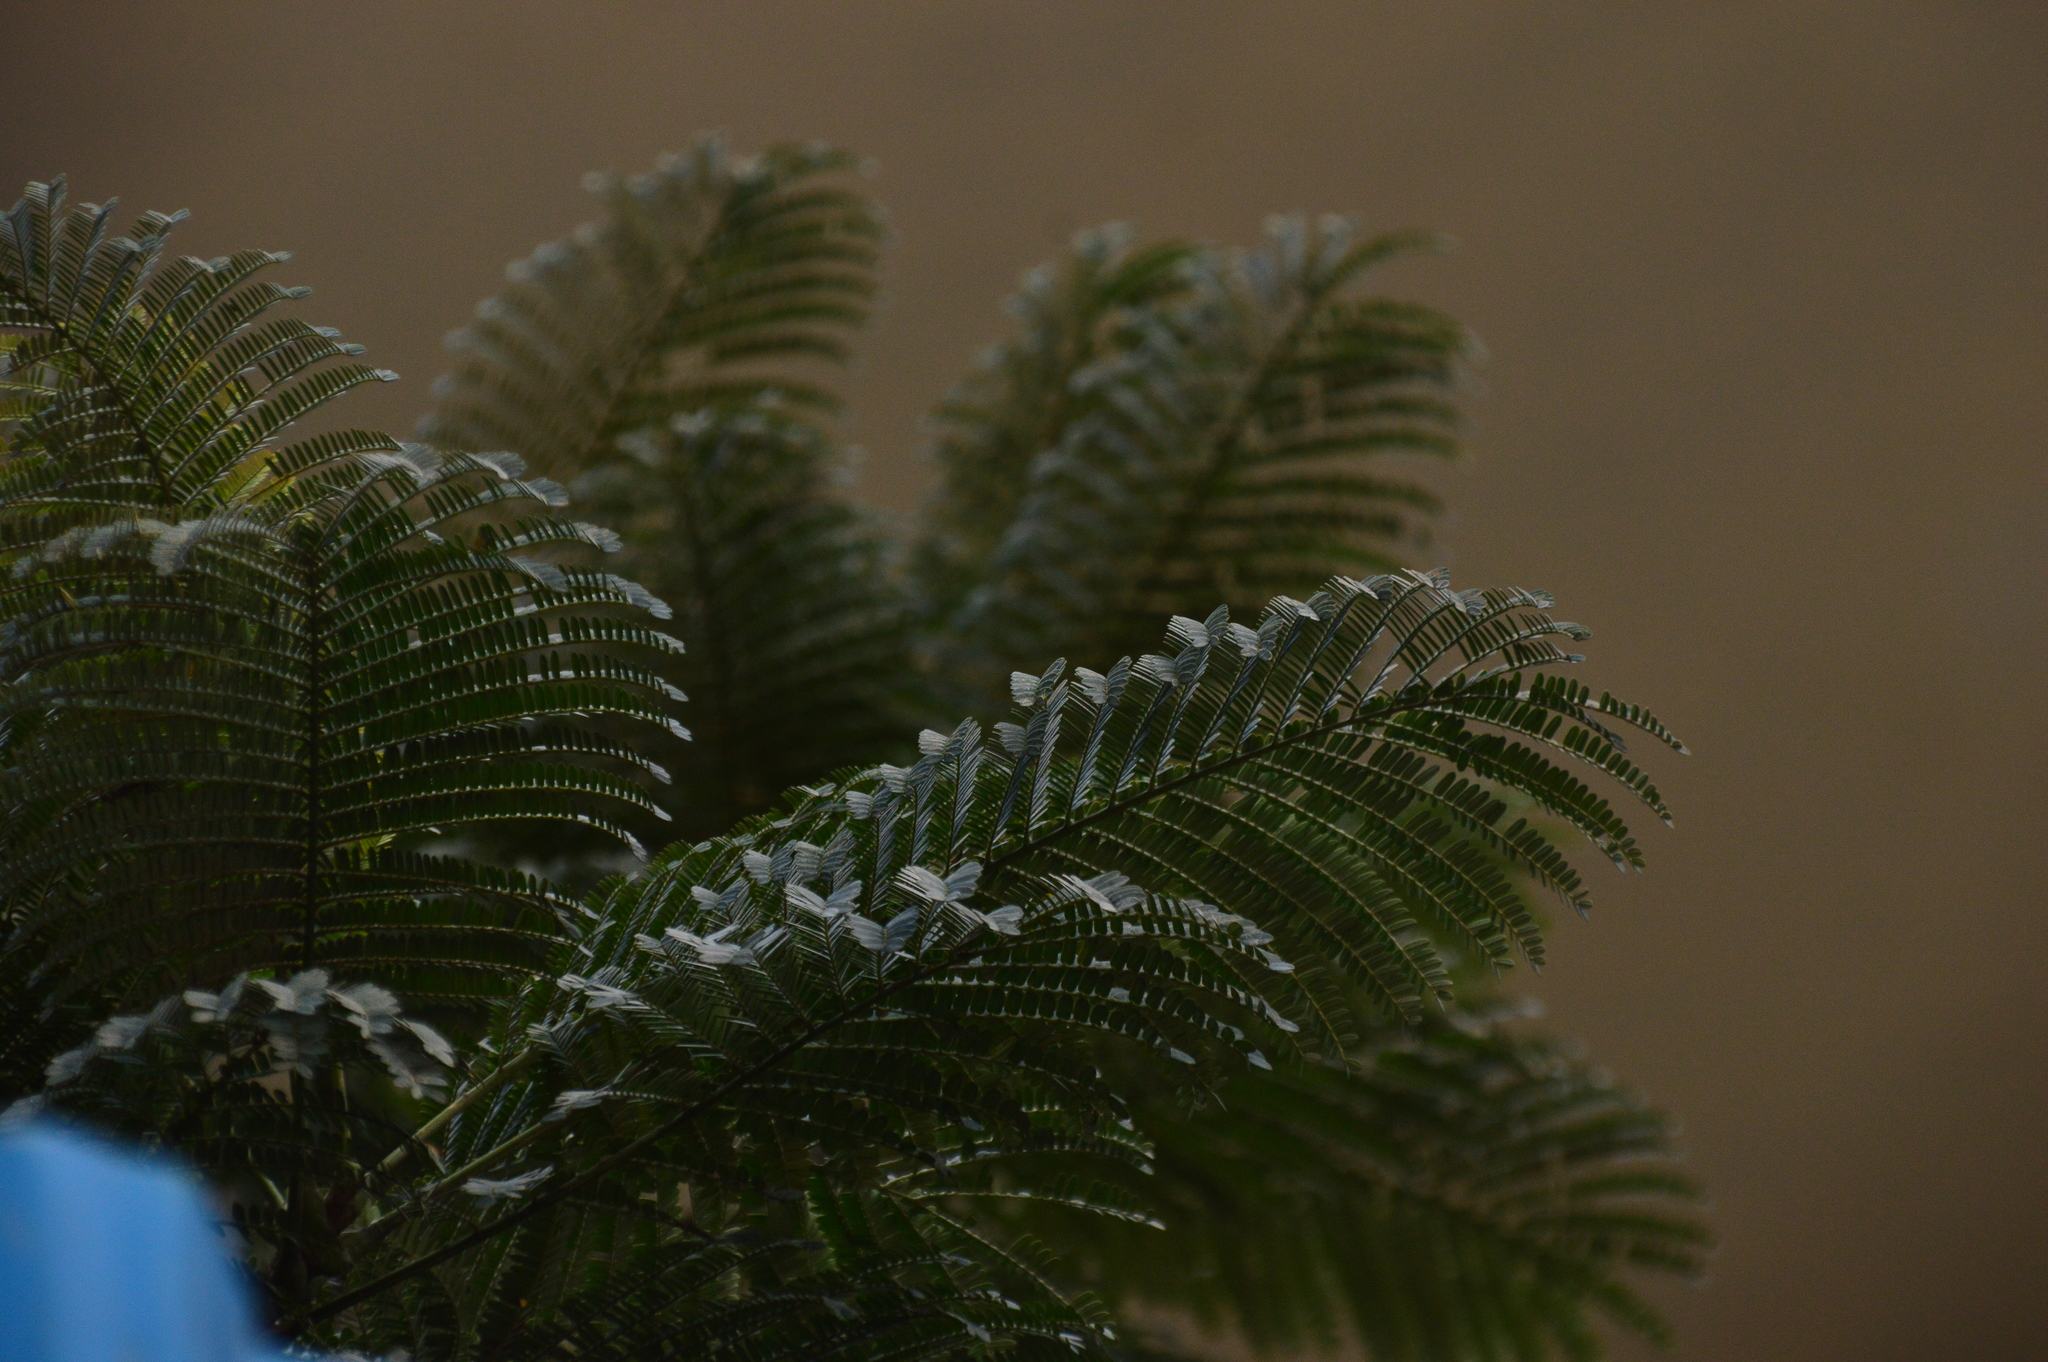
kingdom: Plantae
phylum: Tracheophyta
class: Magnoliopsida
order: Fabales
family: Fabaceae
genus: Delonix
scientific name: Delonix regia
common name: Royal poinciana
